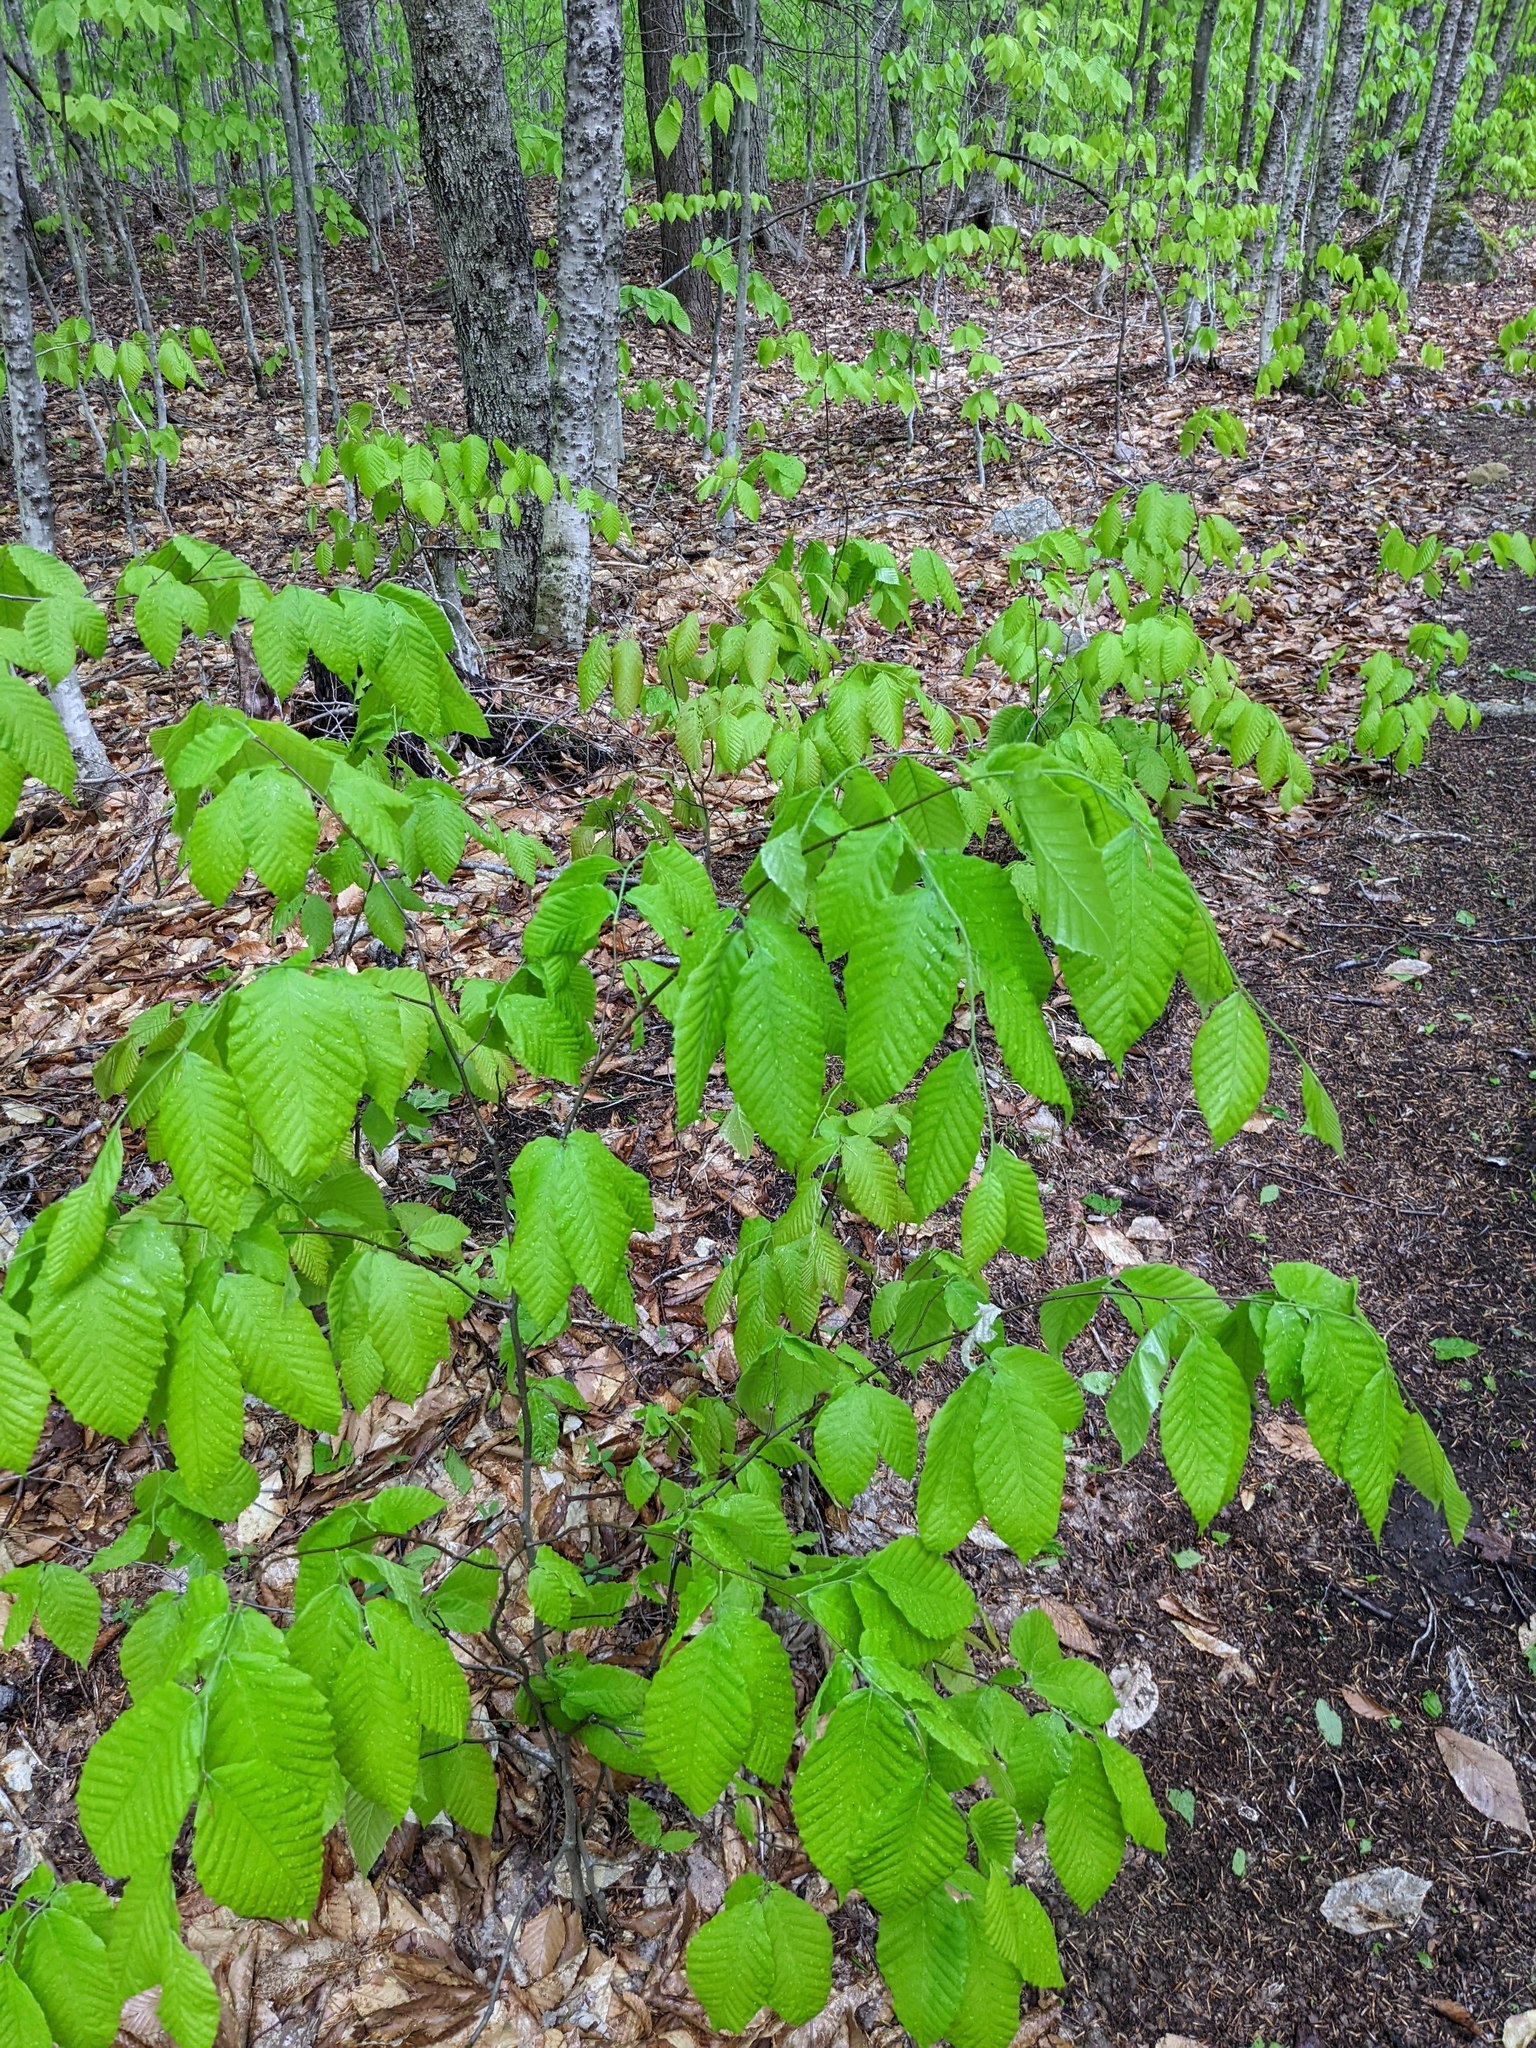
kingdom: Plantae
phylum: Tracheophyta
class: Magnoliopsida
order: Fagales
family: Fagaceae
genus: Fagus
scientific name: Fagus grandifolia
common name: American beech
